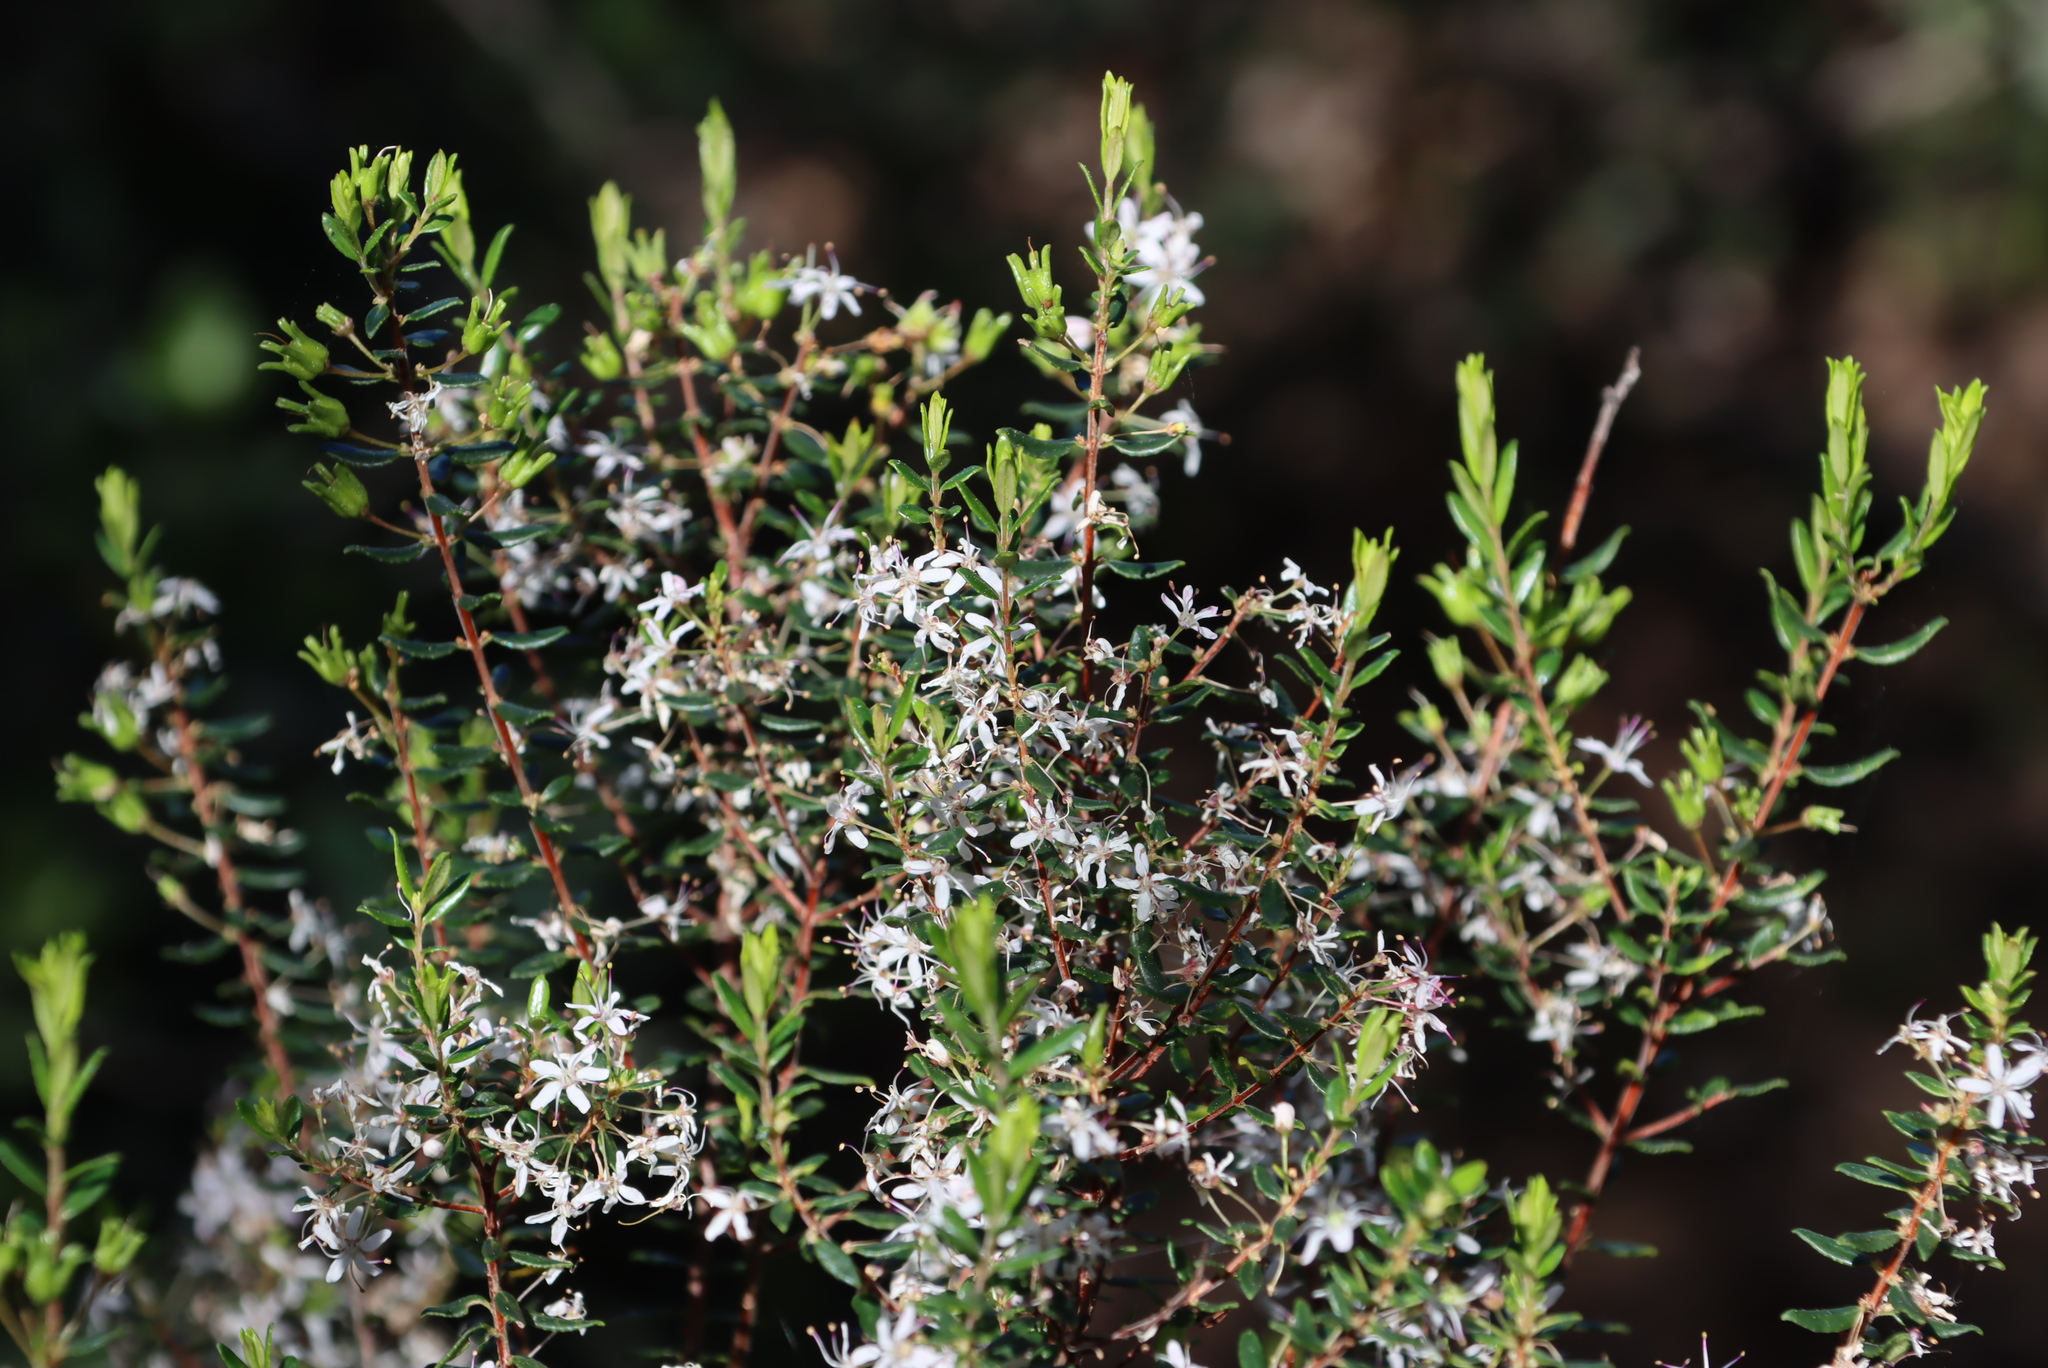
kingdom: Plantae
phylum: Tracheophyta
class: Magnoliopsida
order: Sapindales
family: Rutaceae
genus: Agathosma
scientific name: Agathosma ovata
